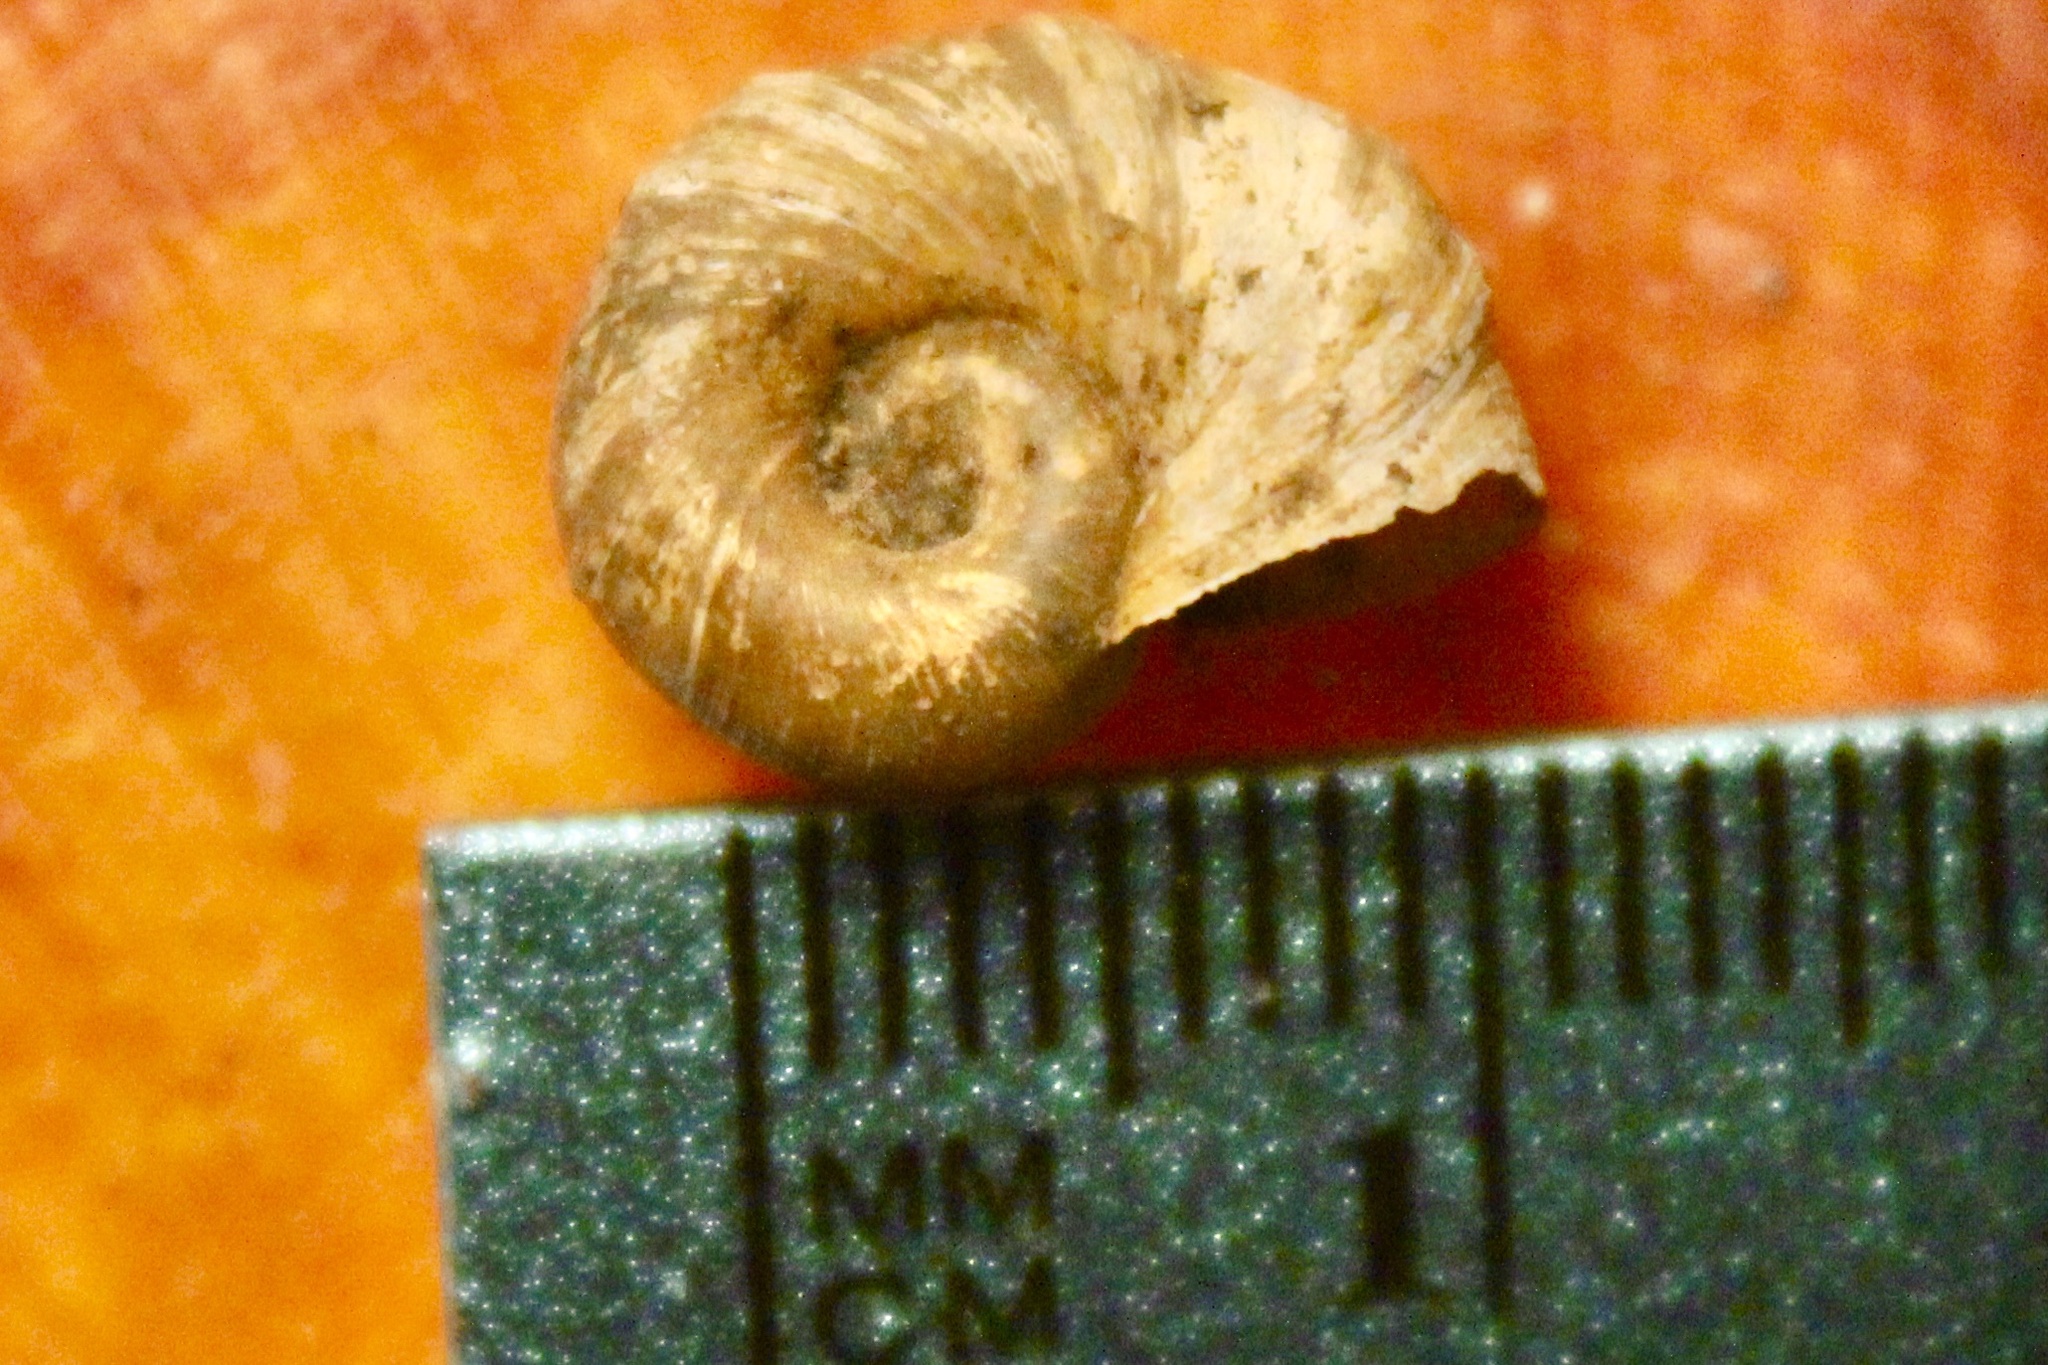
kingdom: Animalia
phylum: Mollusca
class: Gastropoda
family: Planorbidae
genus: Planorbella
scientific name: Planorbella trivolvis
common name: Marsh rams-horn
